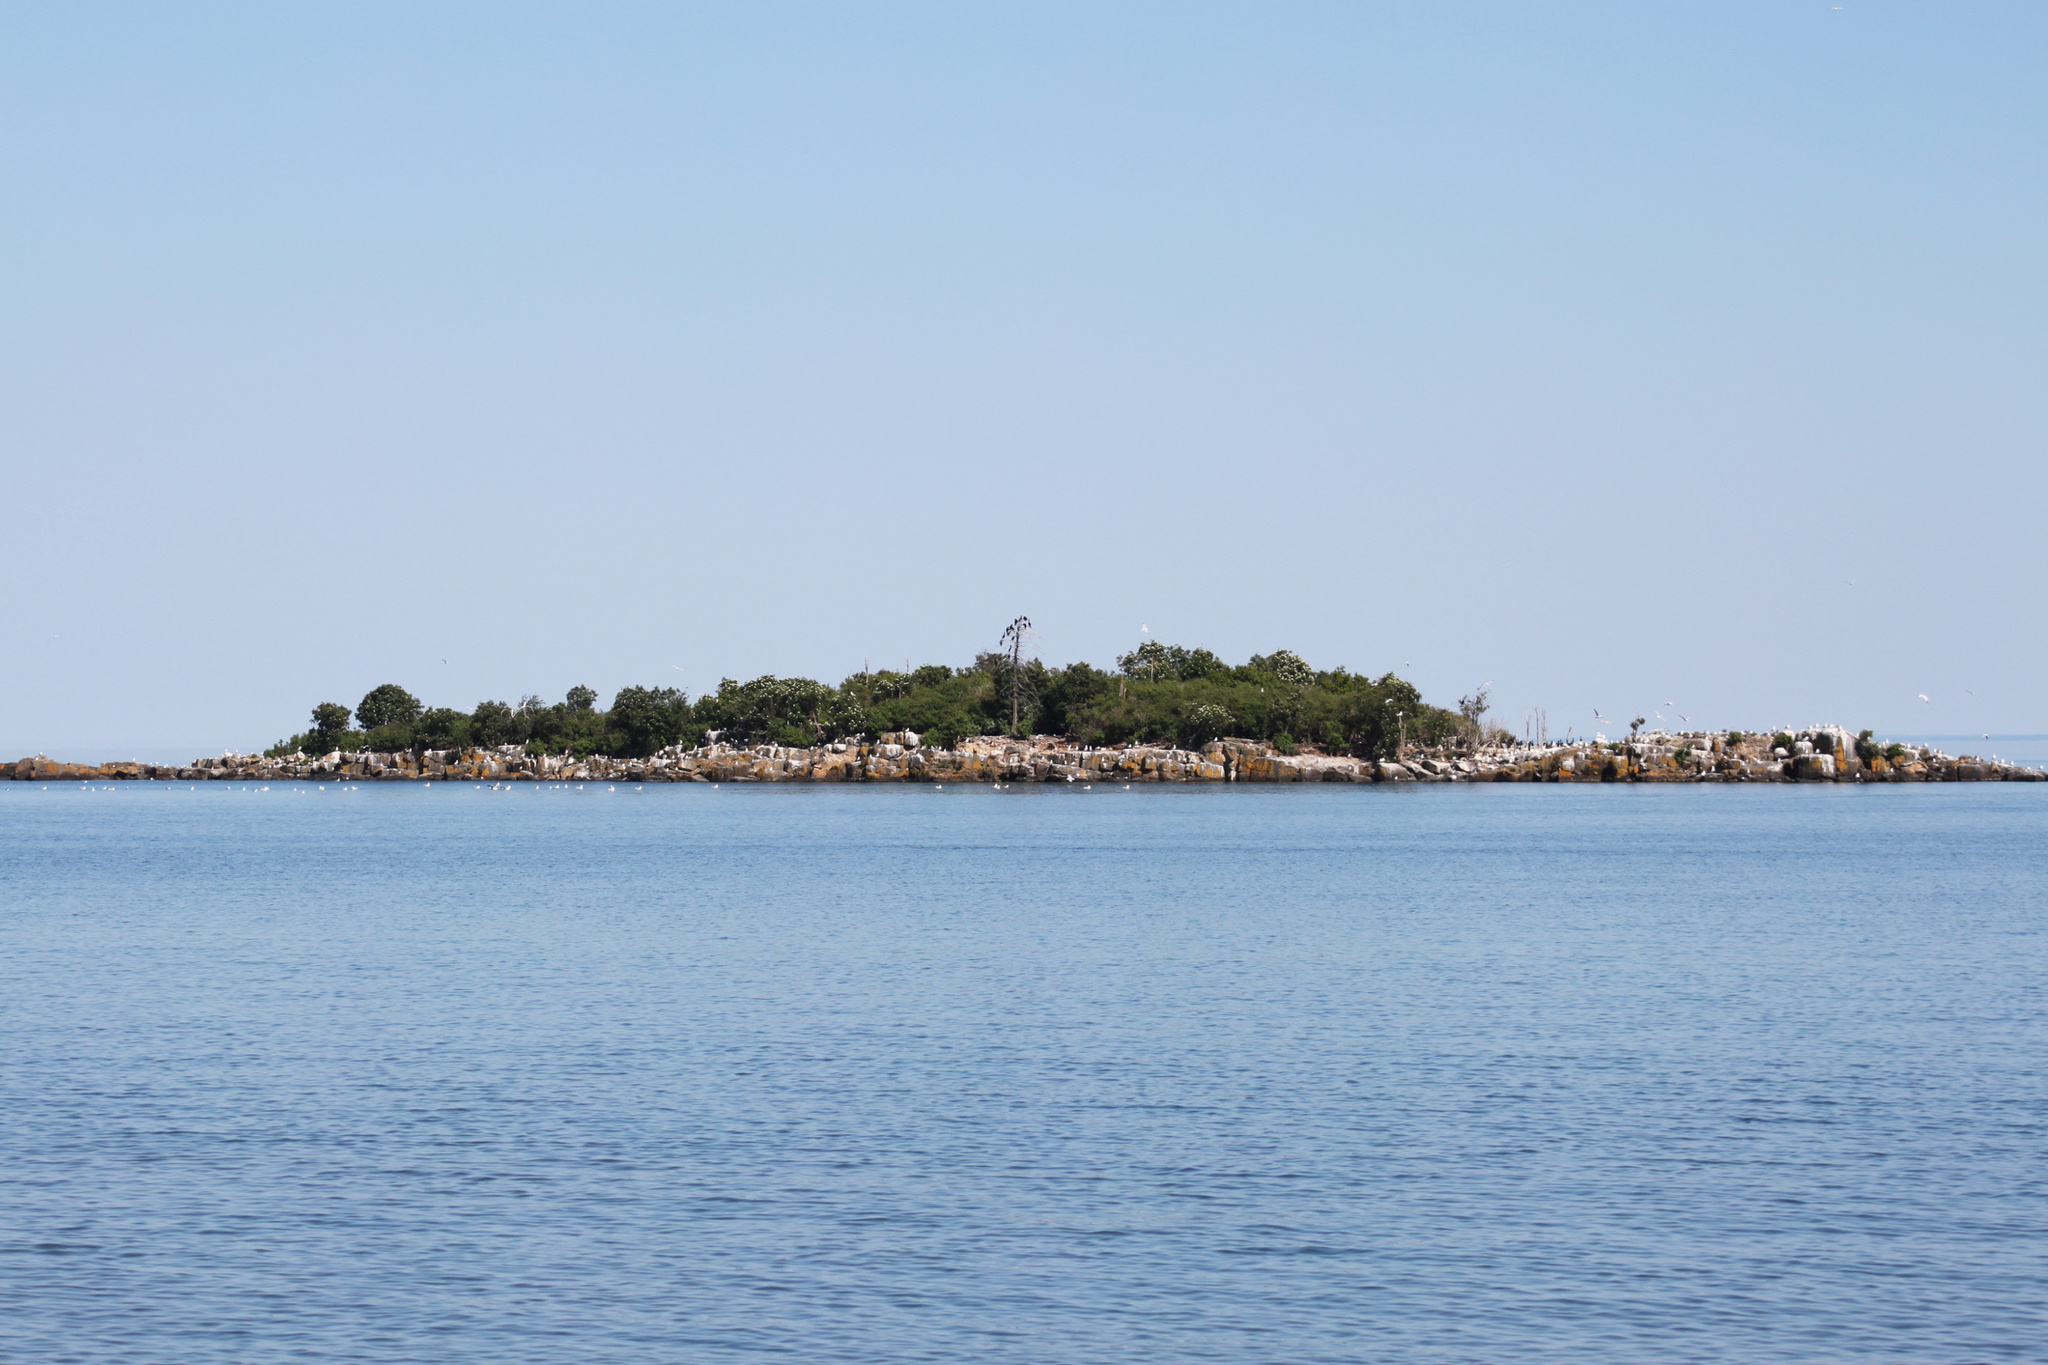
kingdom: Animalia
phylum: Chordata
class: Aves
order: Suliformes
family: Phalacrocoracidae
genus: Phalacrocorax
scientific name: Phalacrocorax auritus
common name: Double-crested cormorant
